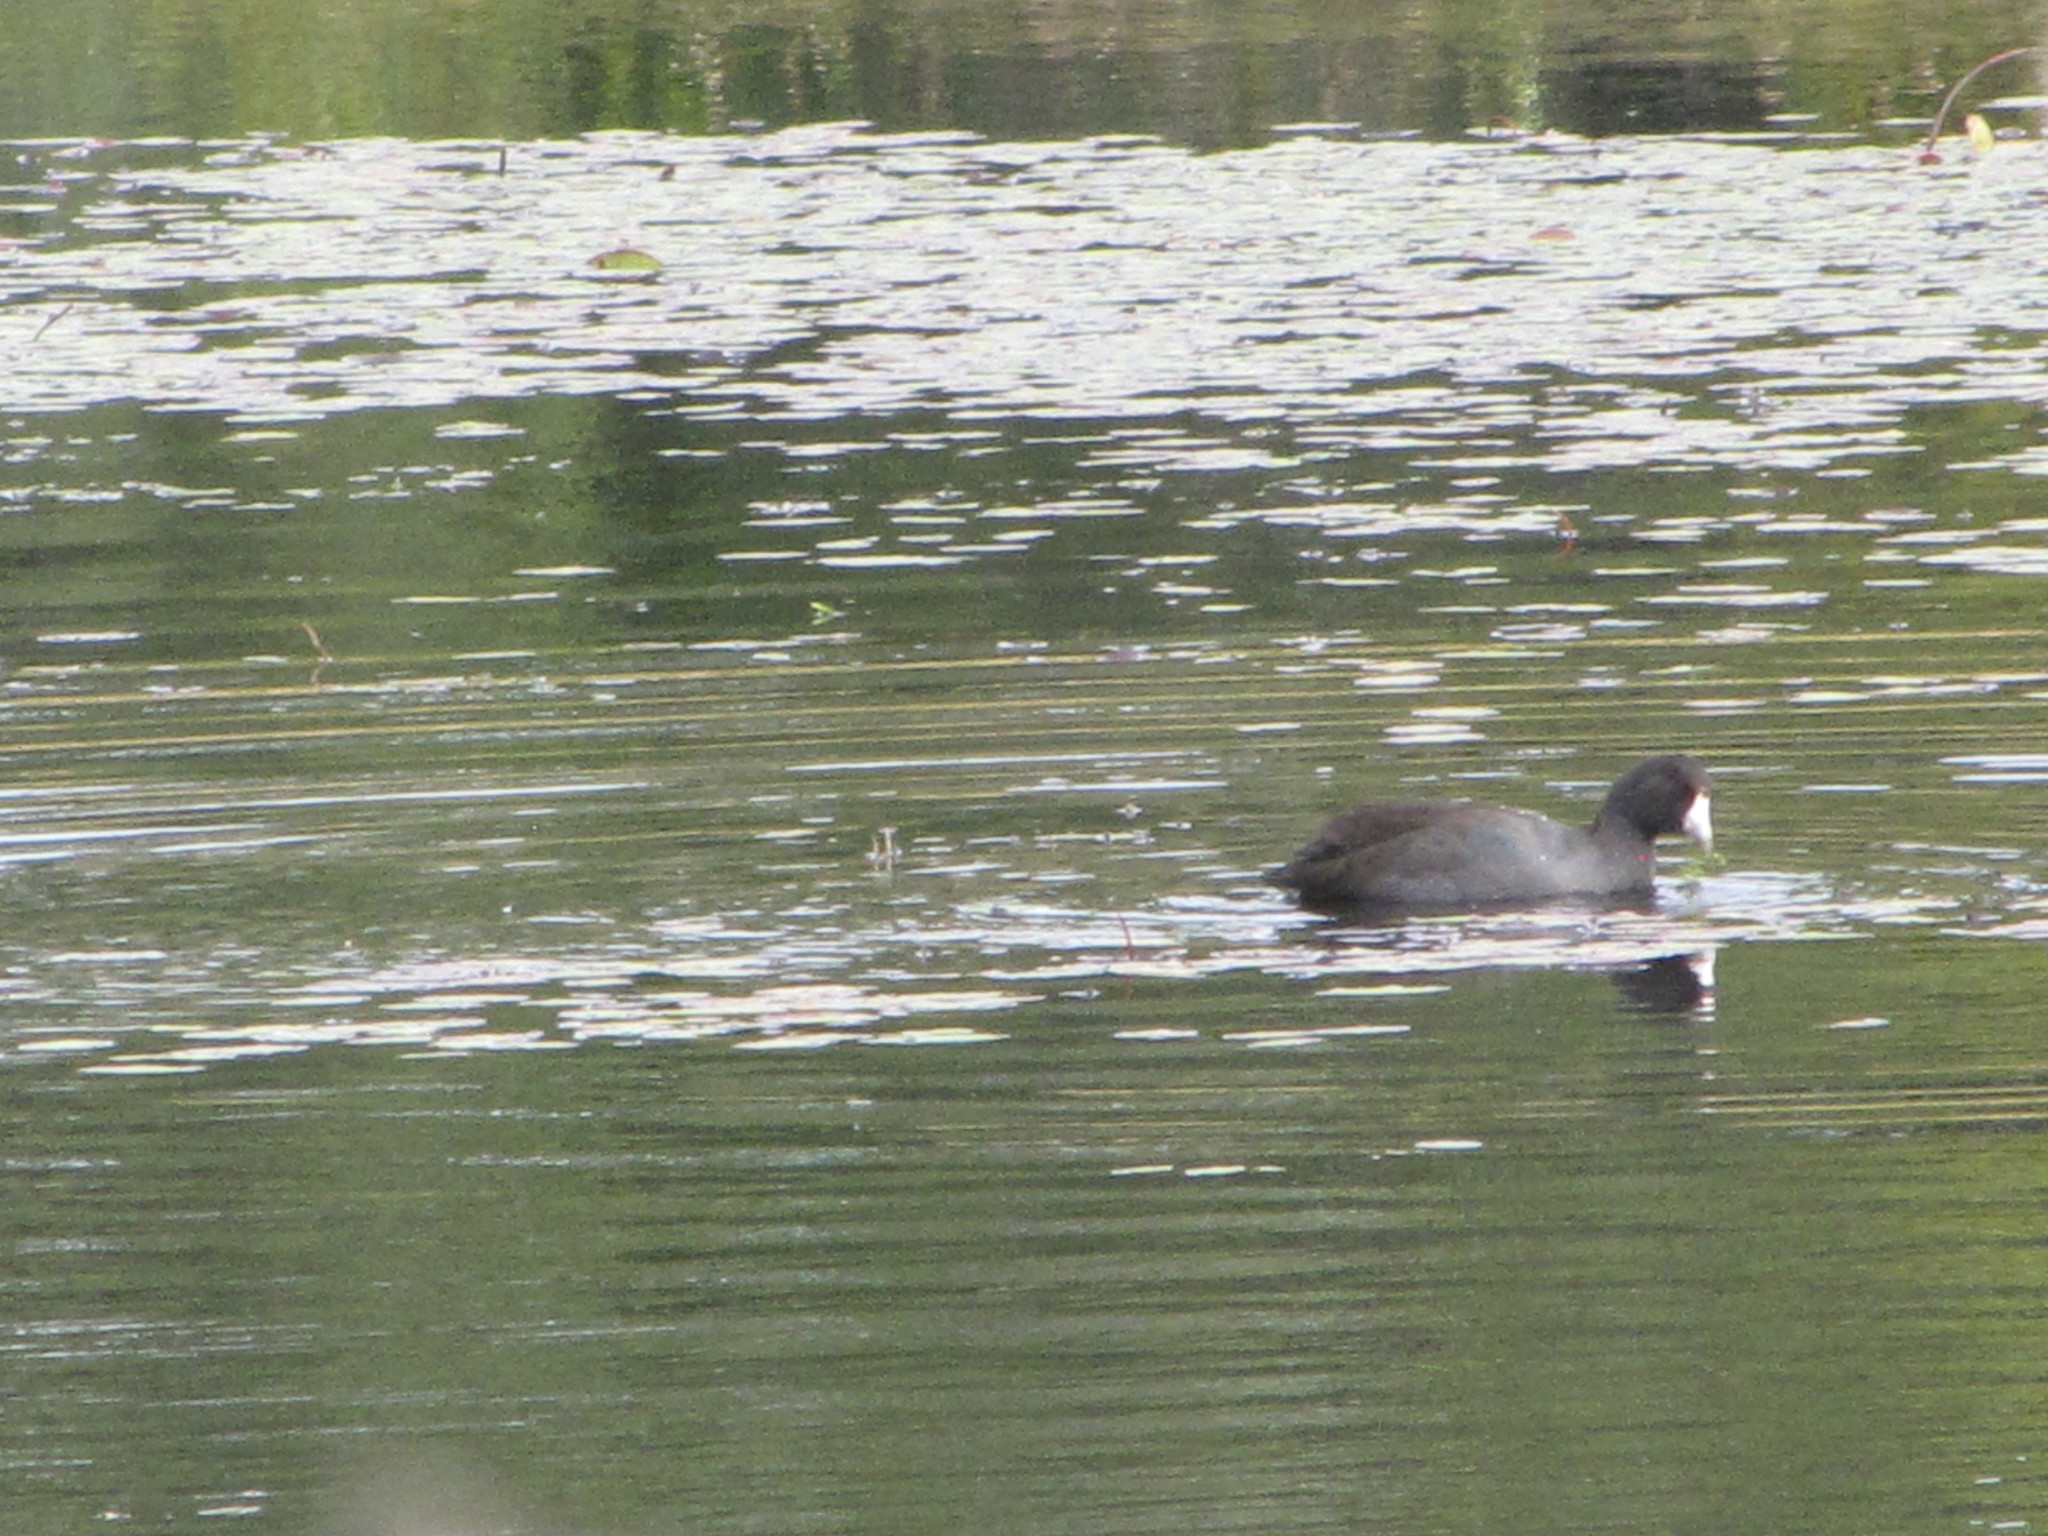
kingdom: Animalia
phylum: Chordata
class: Aves
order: Gruiformes
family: Rallidae
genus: Fulica
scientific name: Fulica americana
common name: American coot
